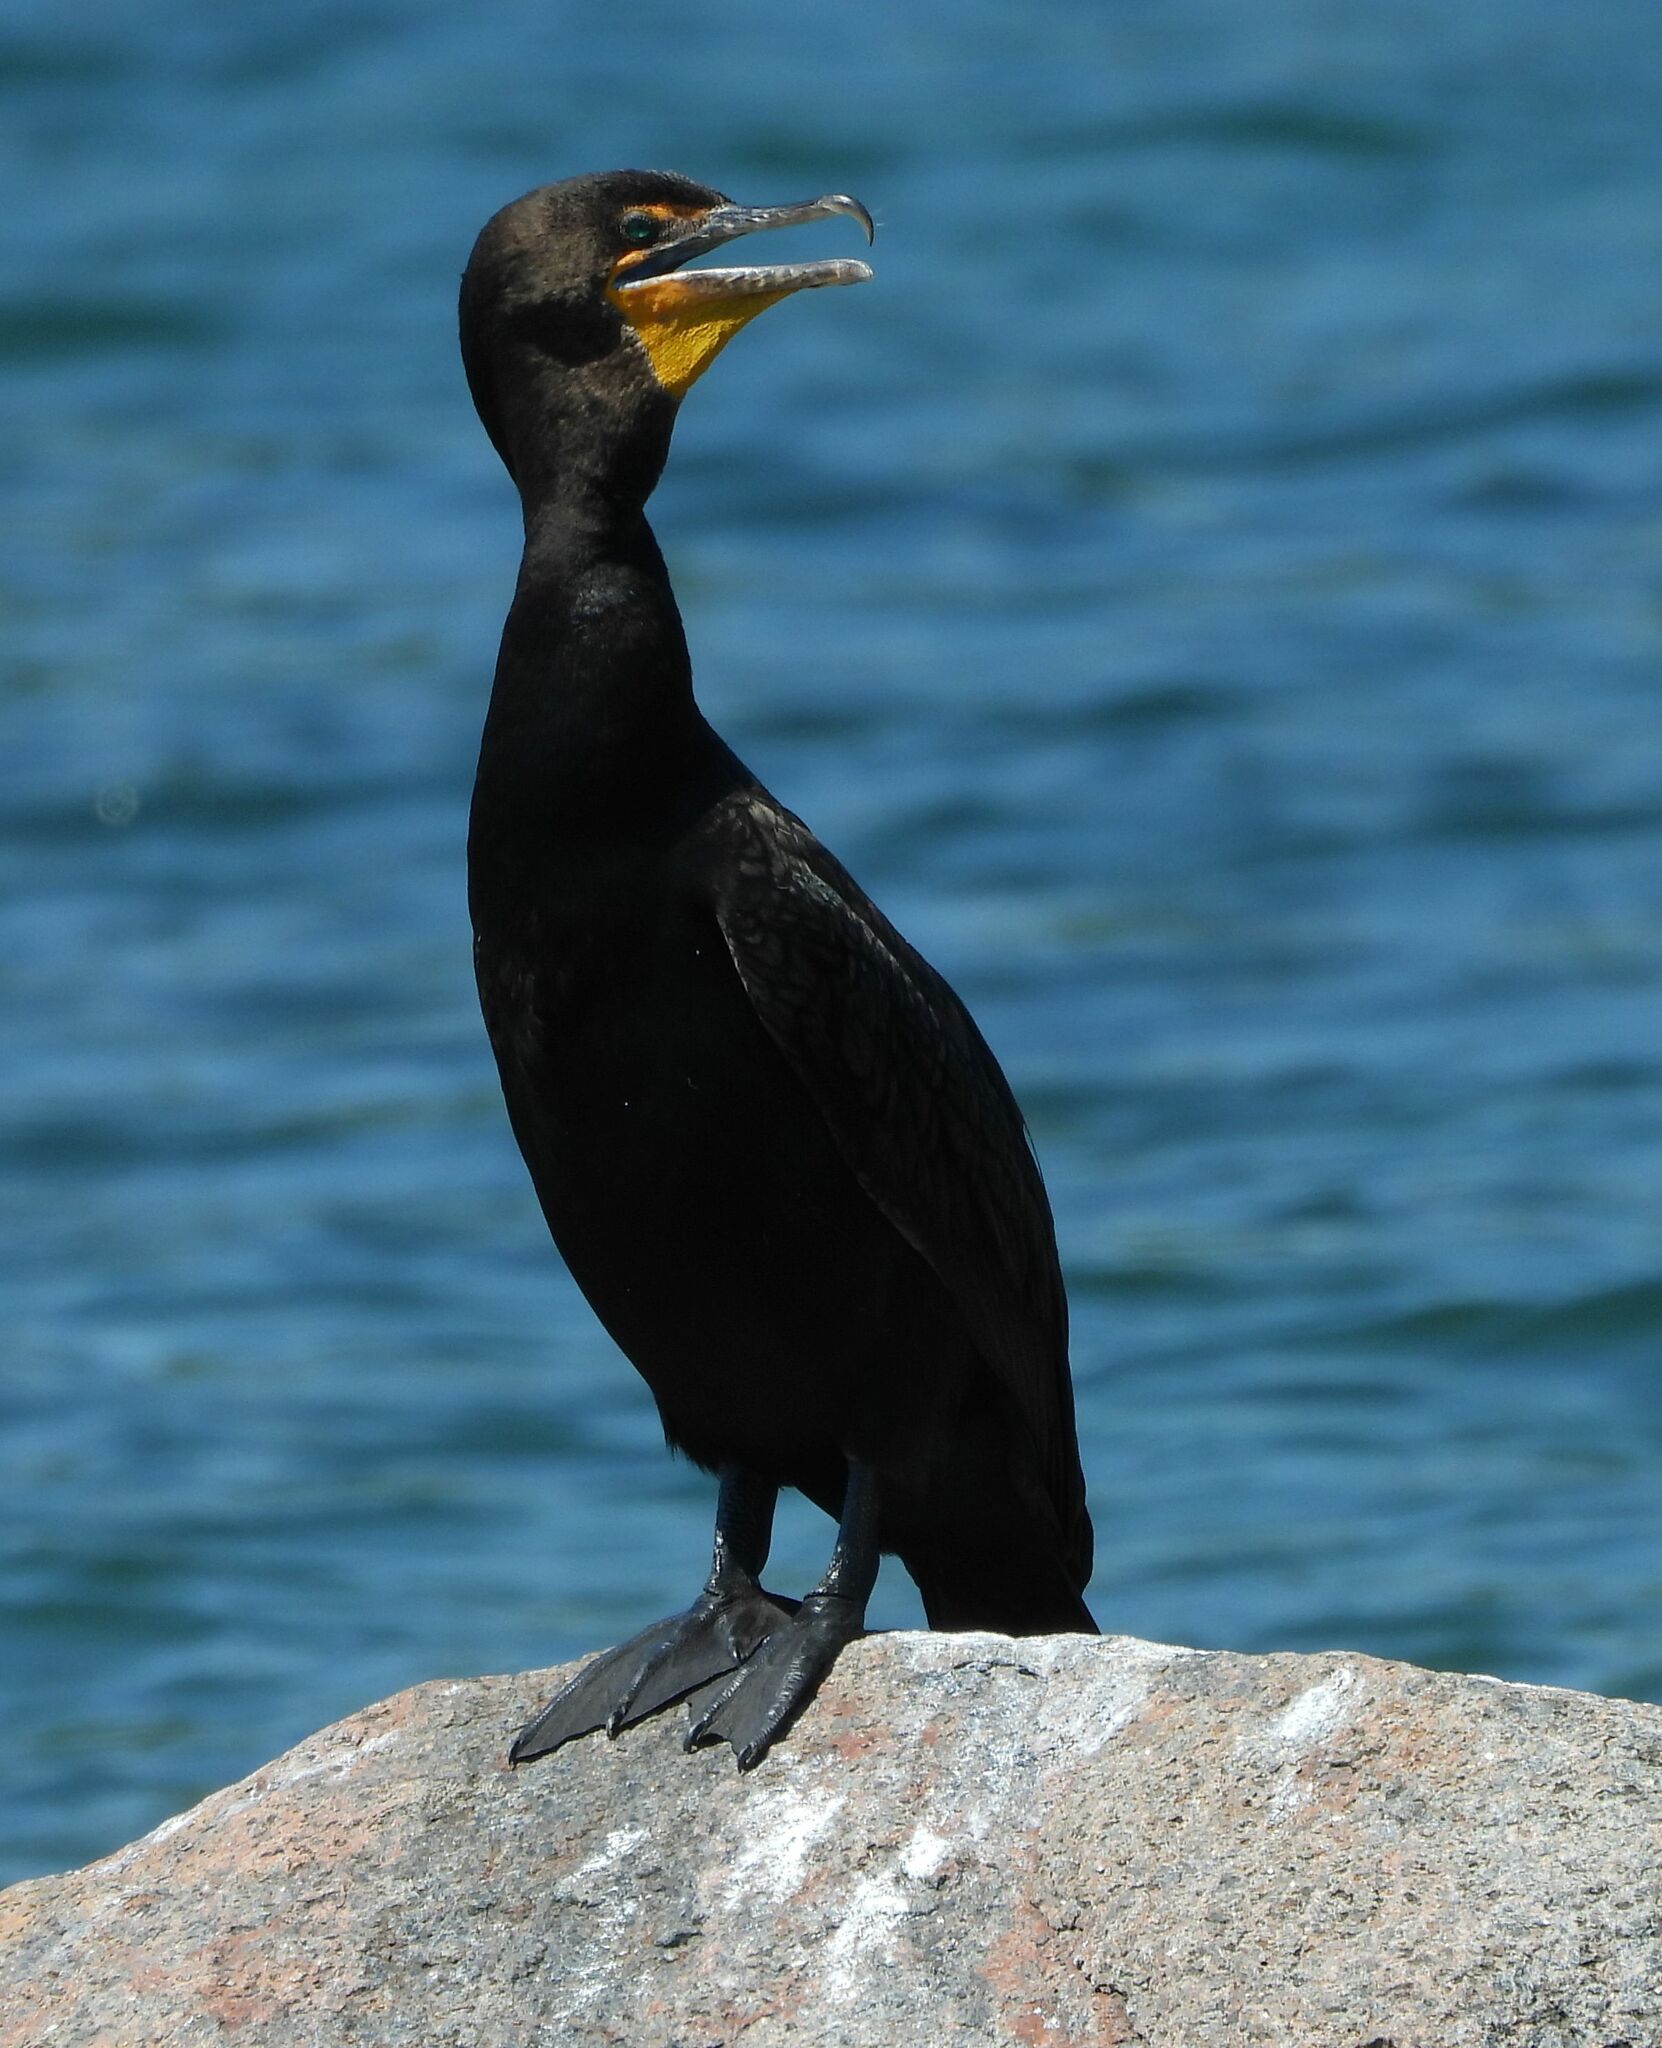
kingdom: Animalia
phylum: Chordata
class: Aves
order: Suliformes
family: Phalacrocoracidae
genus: Phalacrocorax
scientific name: Phalacrocorax auritus
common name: Double-crested cormorant
